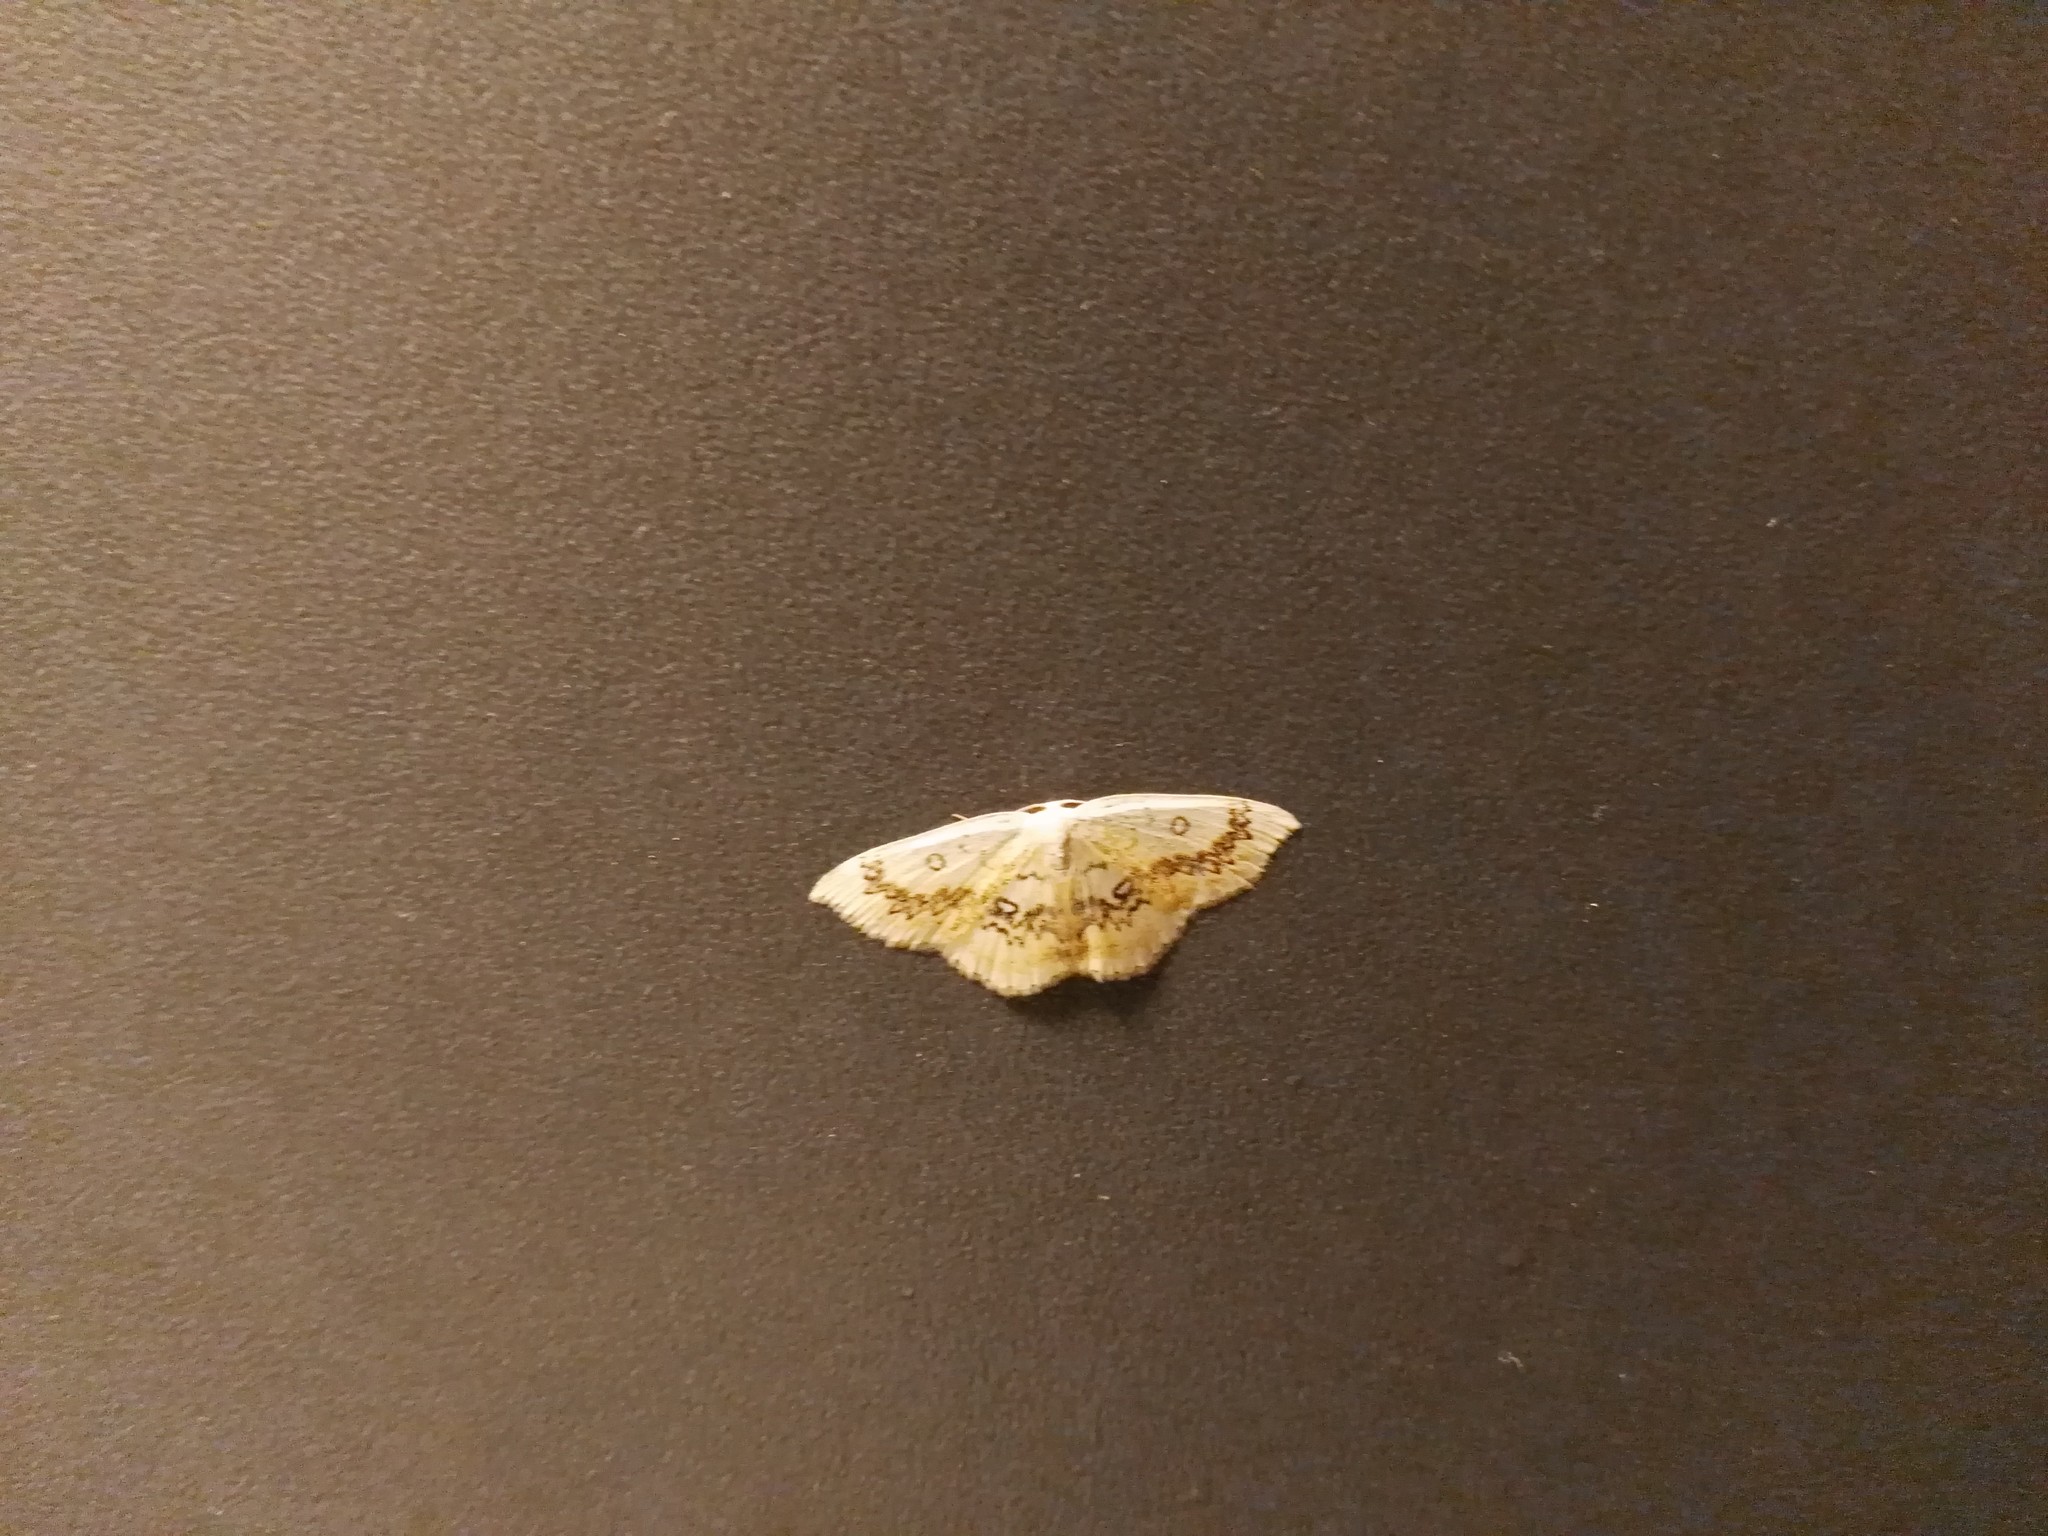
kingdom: Animalia
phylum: Arthropoda
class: Insecta
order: Lepidoptera
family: Geometridae
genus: Cyclophora
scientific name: Cyclophora annularia
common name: Mocha
